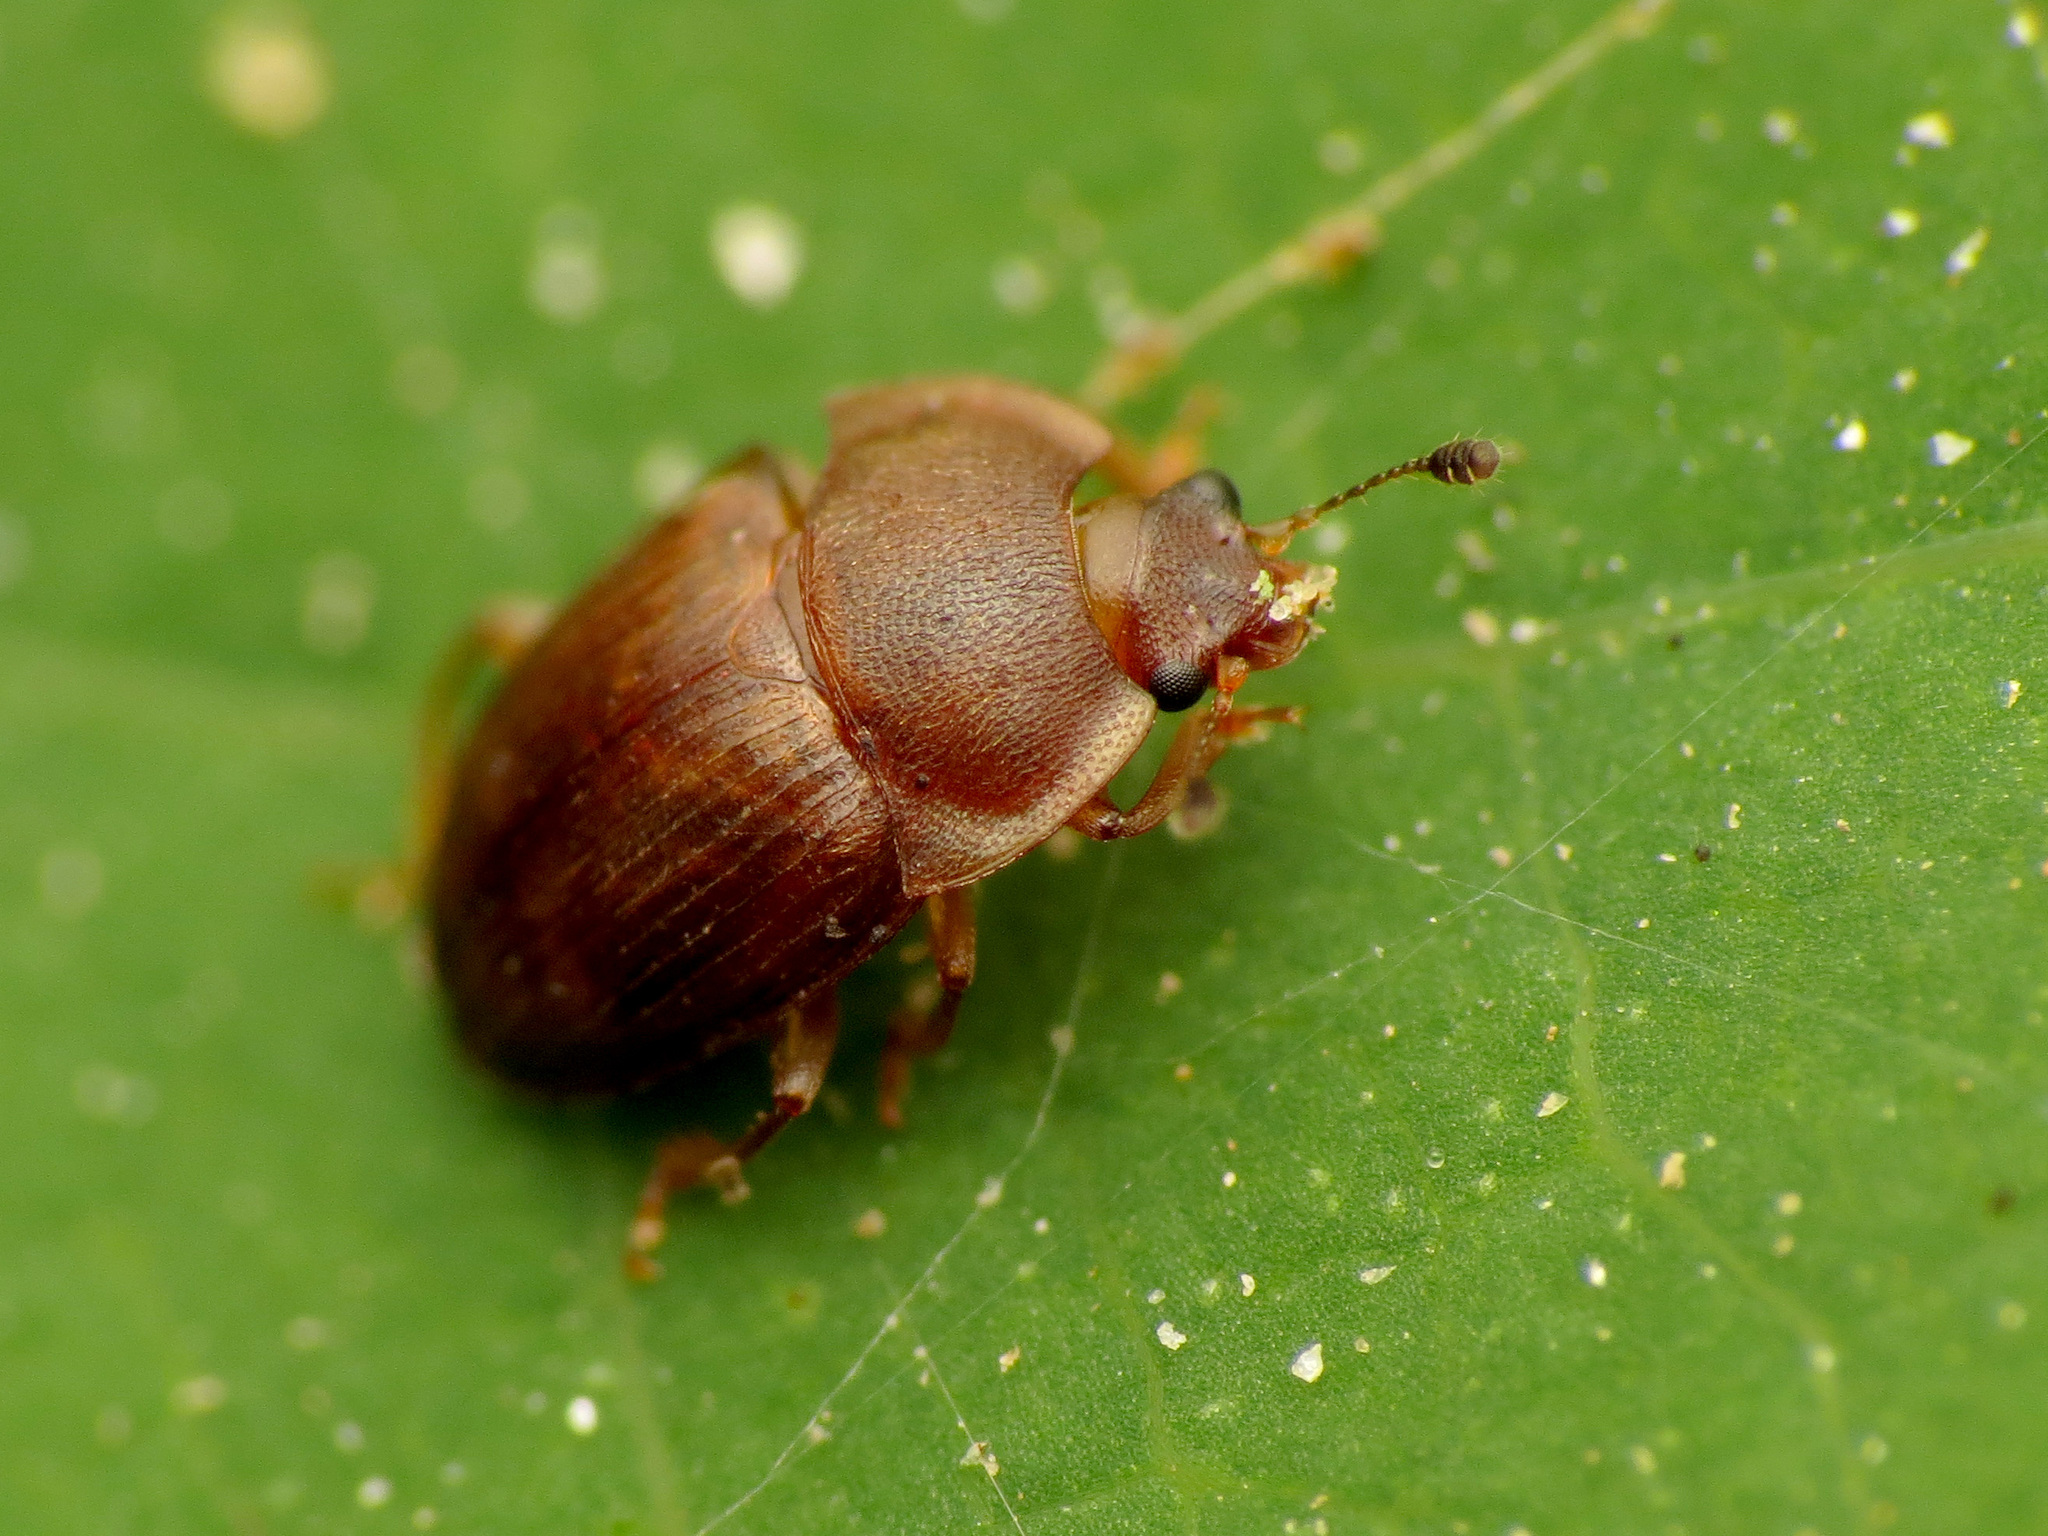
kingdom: Animalia
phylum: Arthropoda
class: Insecta
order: Coleoptera
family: Nitidulidae
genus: Stelidota
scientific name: Stelidota geminata
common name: Strawberry sap beetle
